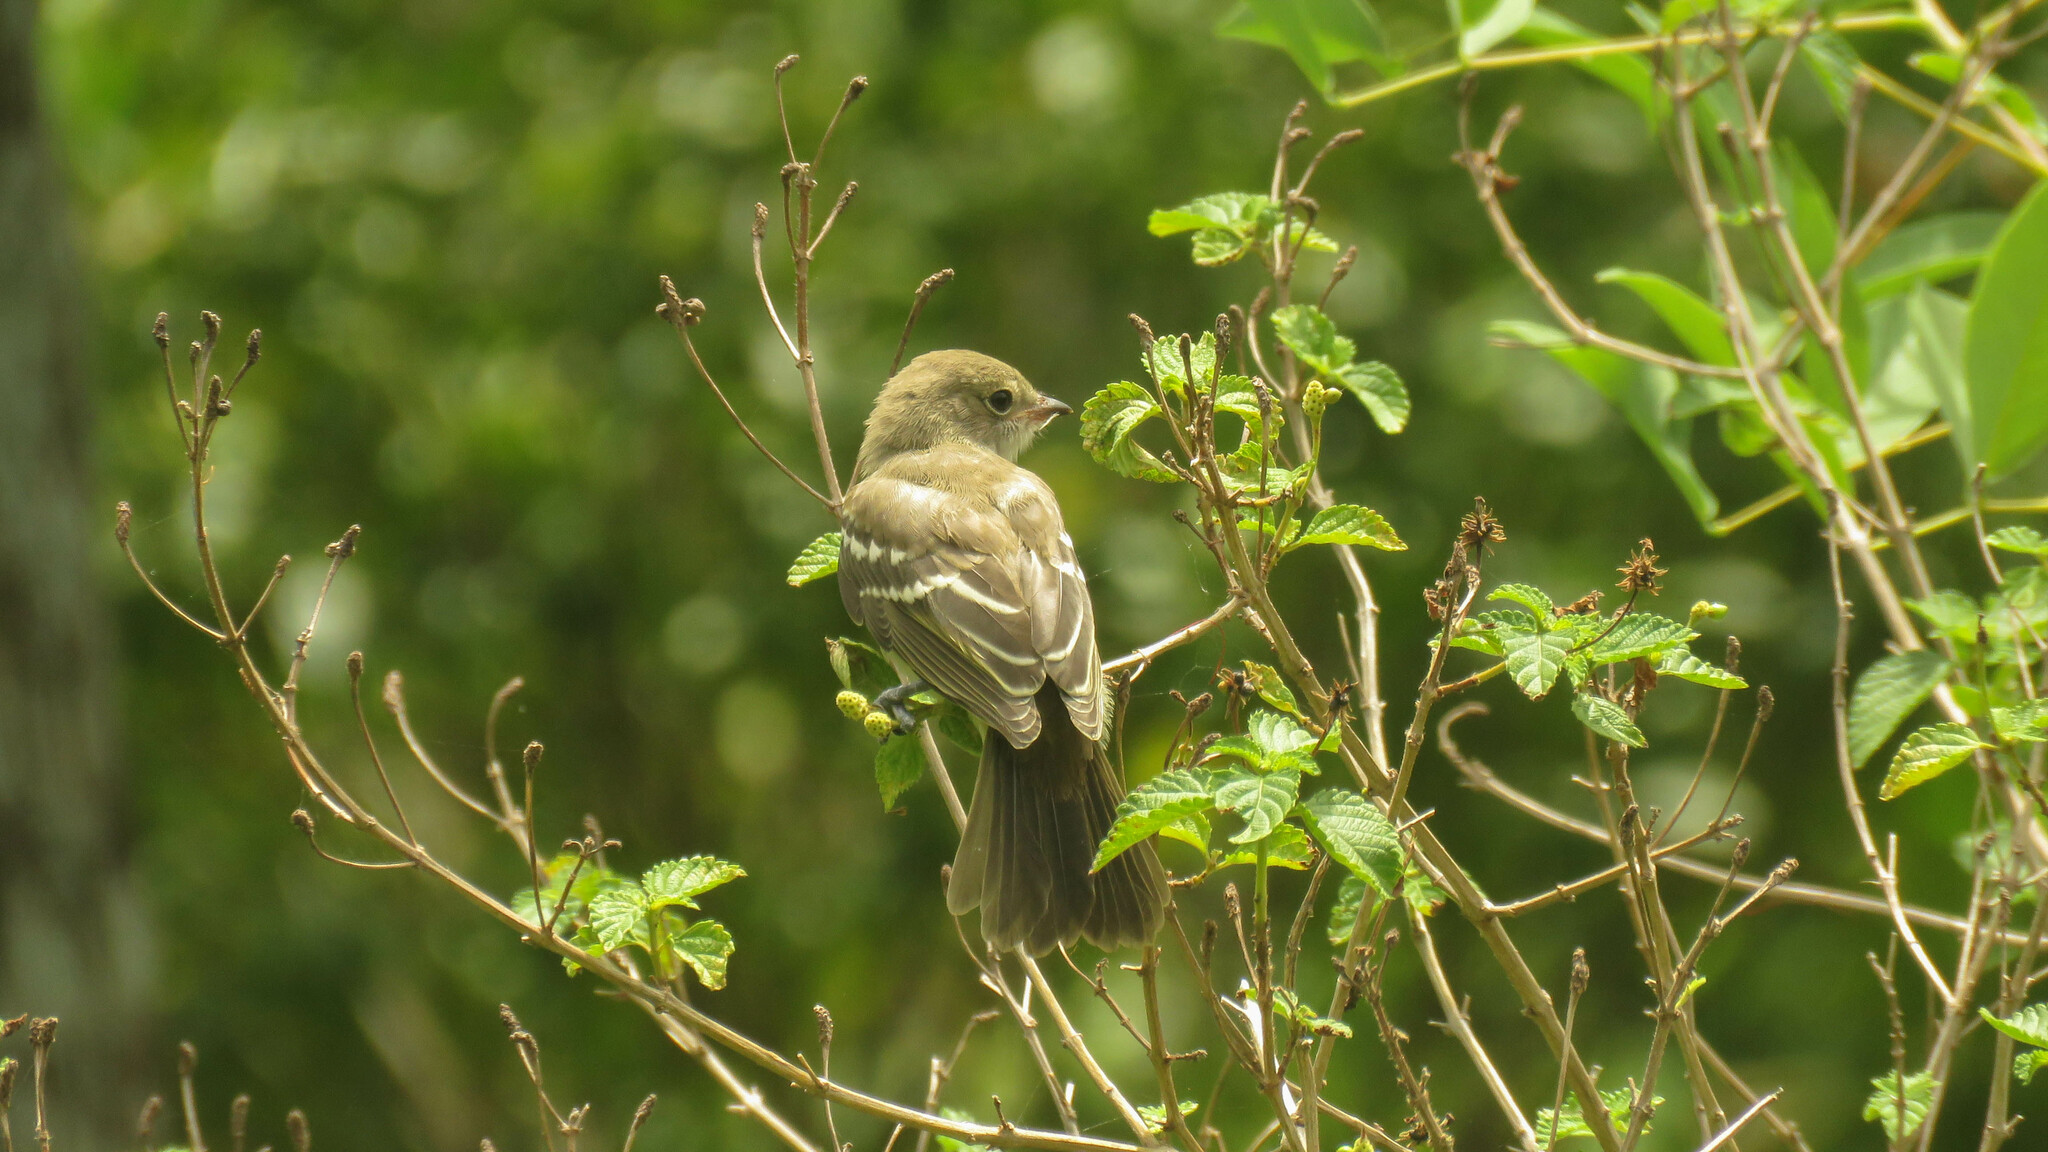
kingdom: Animalia
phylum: Chordata
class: Aves
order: Passeriformes
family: Tyrannidae
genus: Elaenia
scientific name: Elaenia parvirostris
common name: Small-billed elaenia
